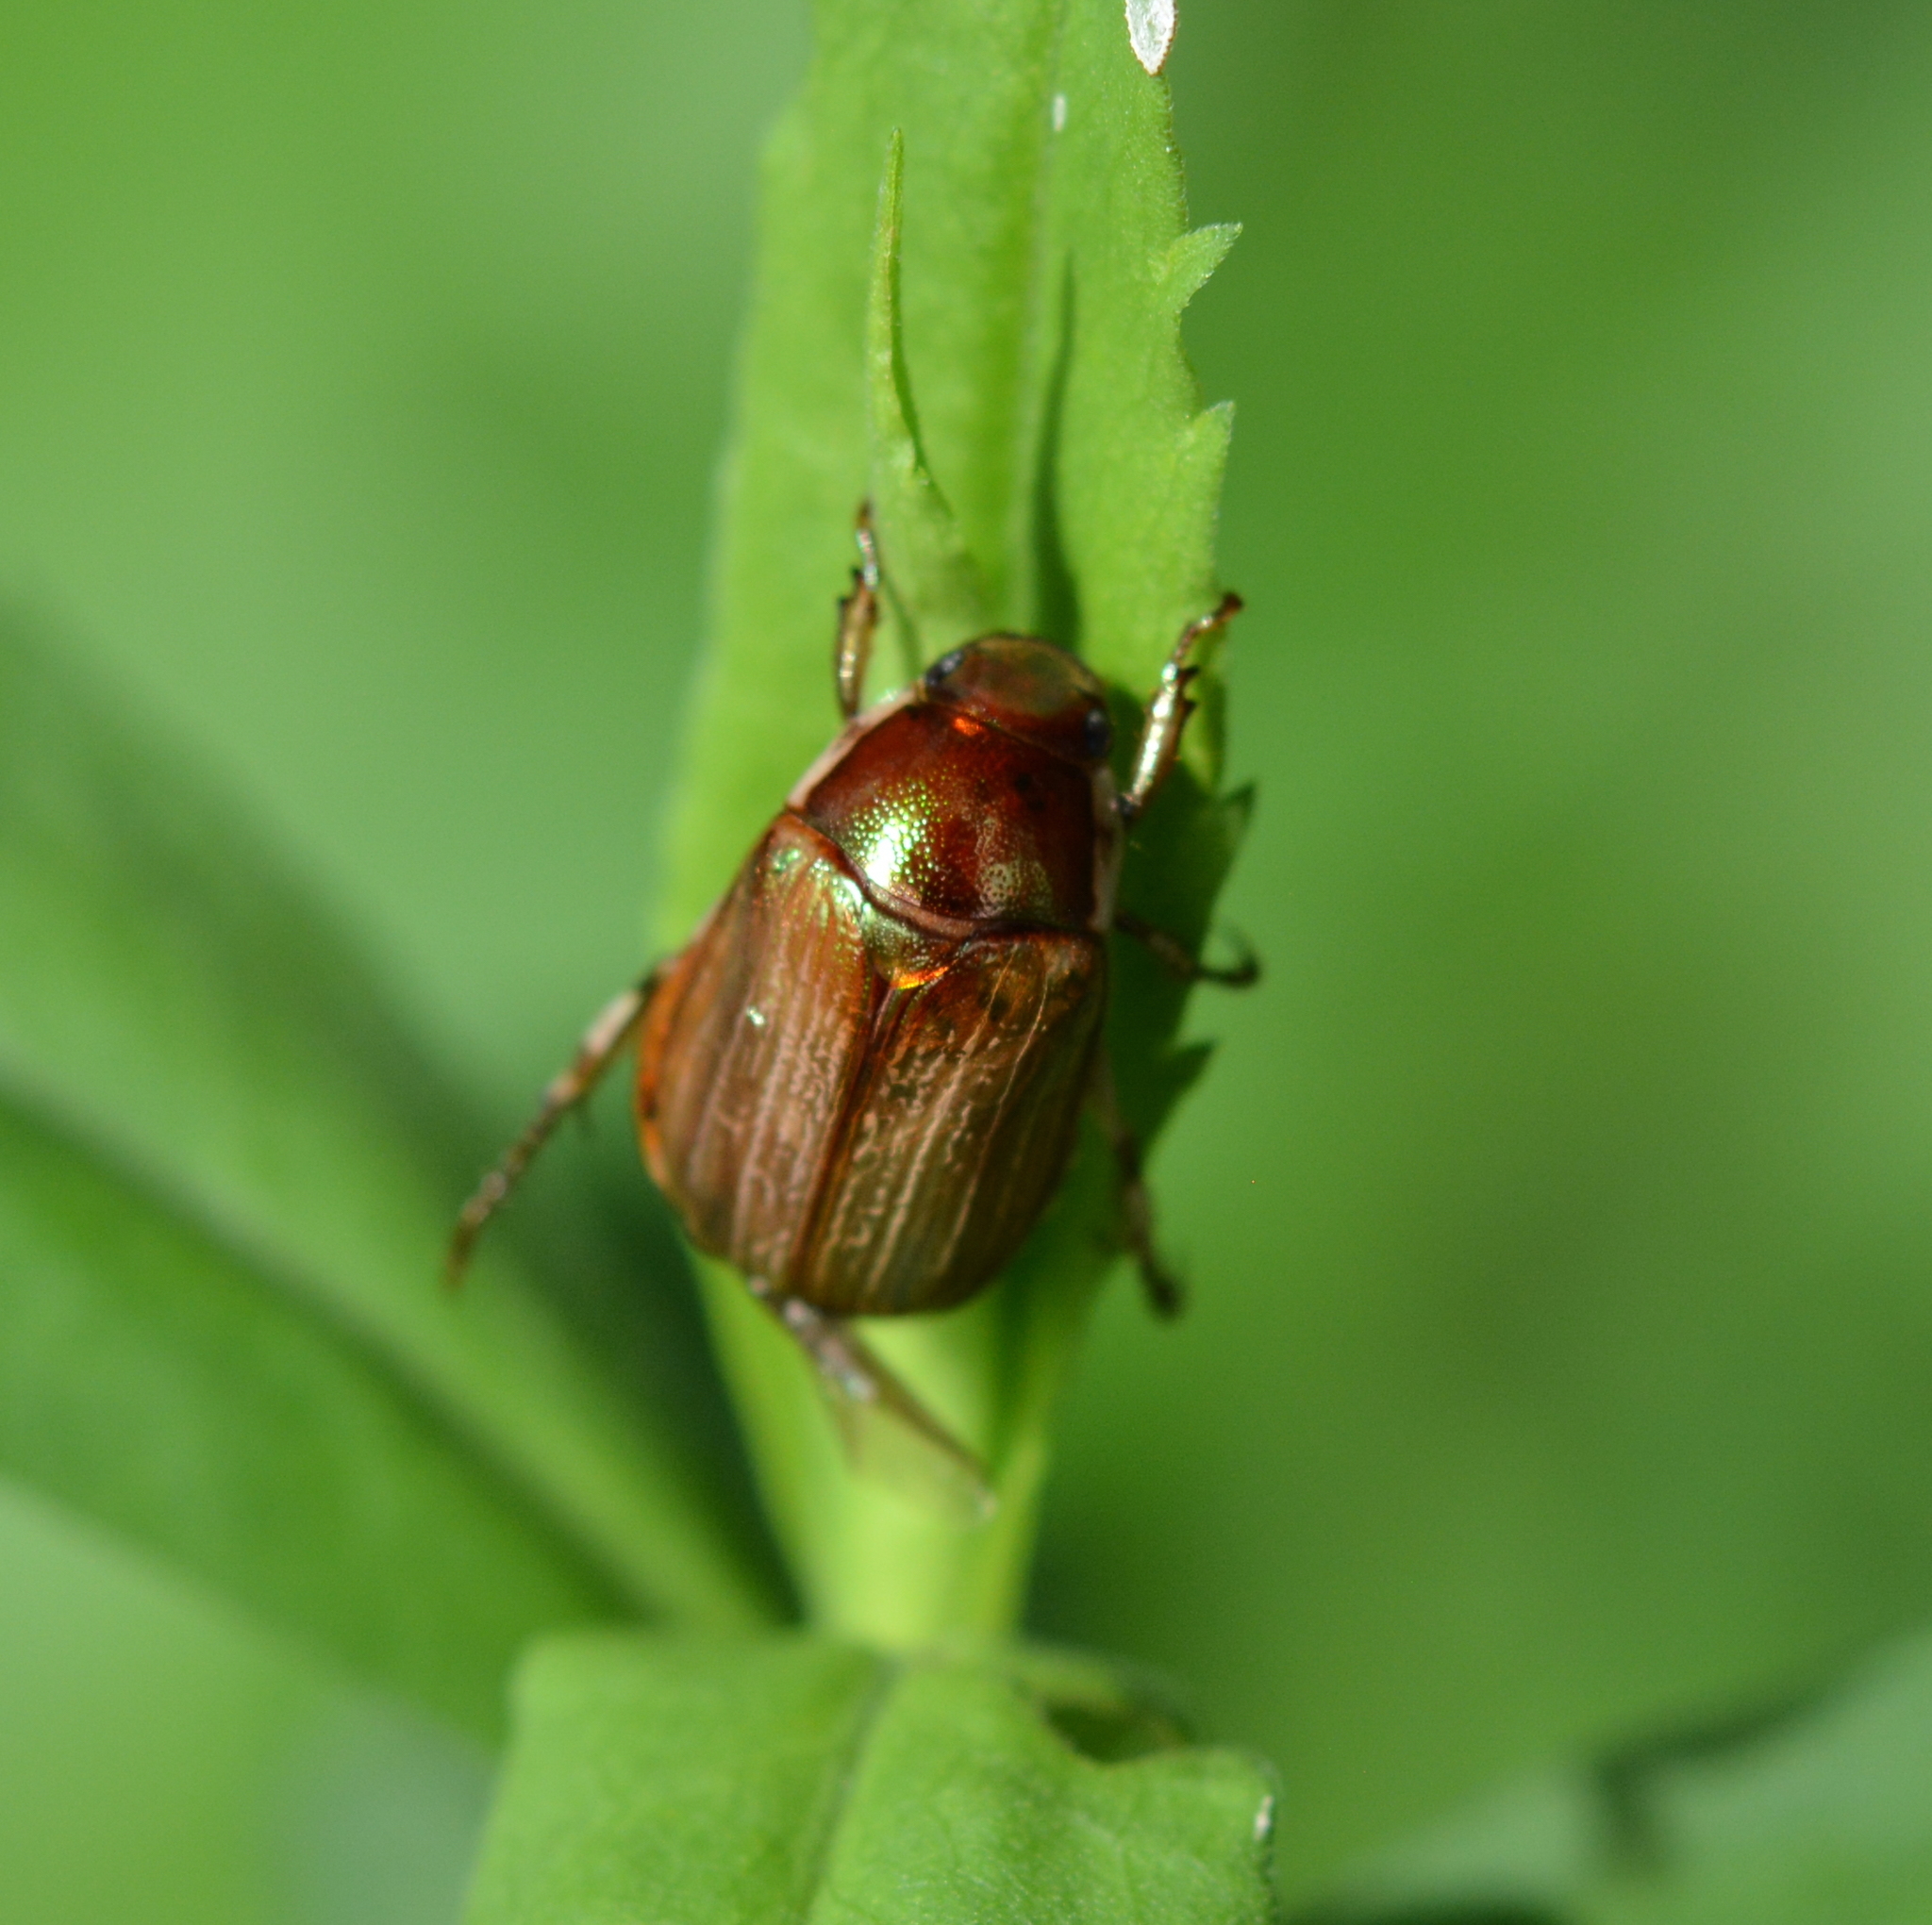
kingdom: Animalia
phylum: Arthropoda
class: Insecta
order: Coleoptera
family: Scarabaeidae
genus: Callistethus
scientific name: Callistethus marginatus
